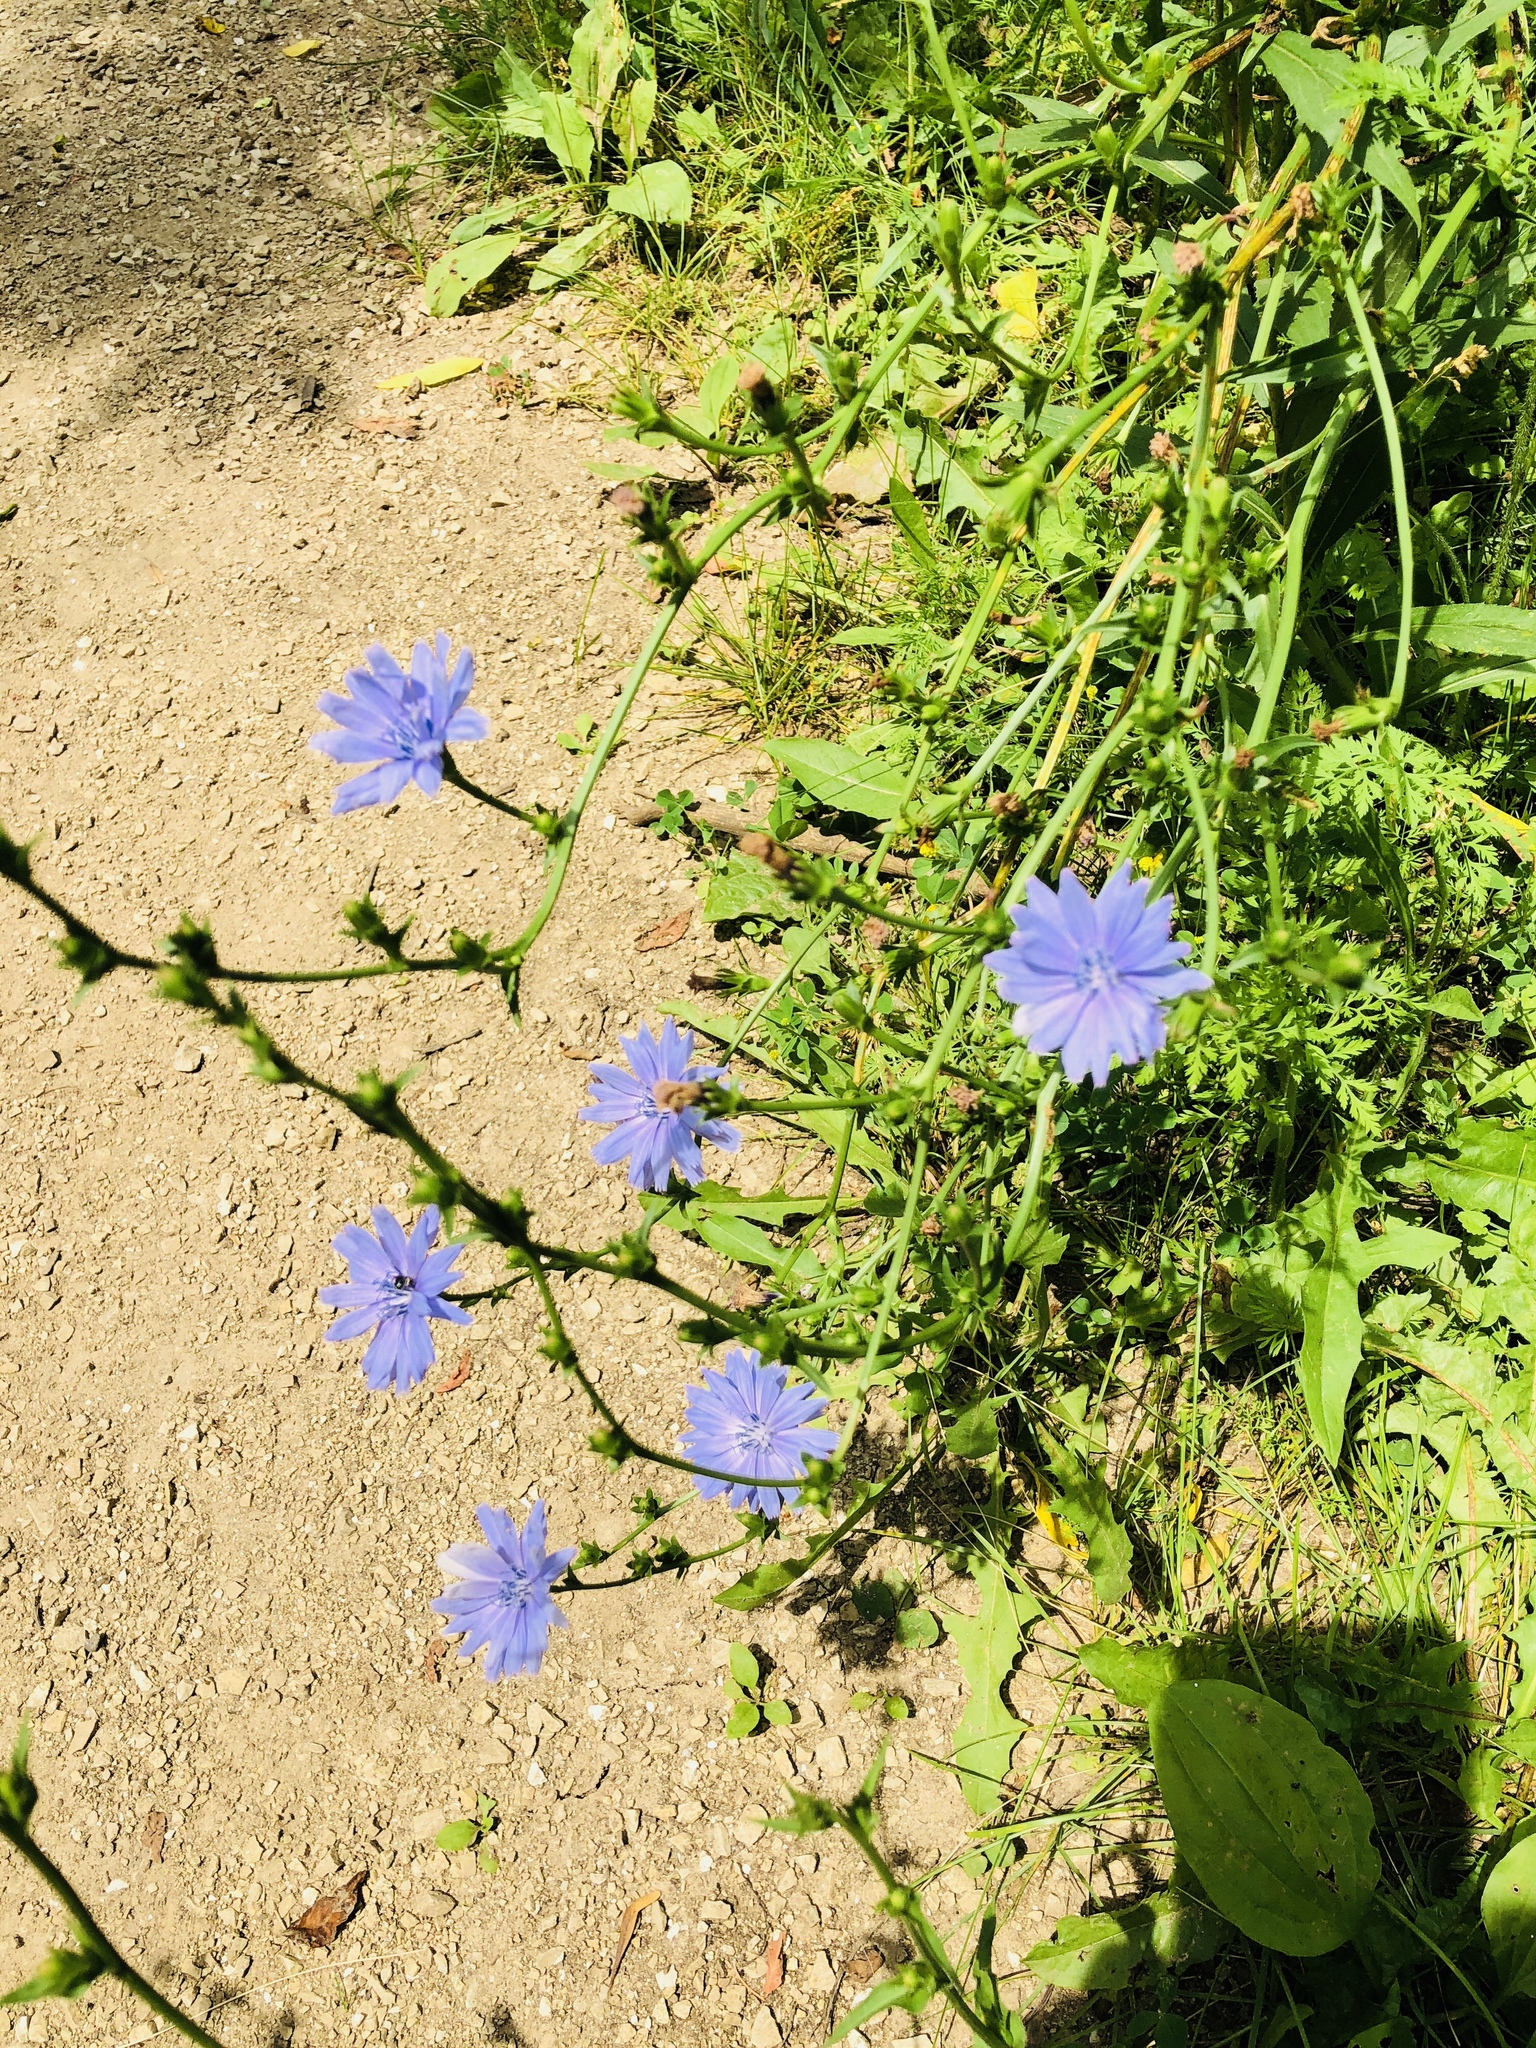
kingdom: Plantae
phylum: Tracheophyta
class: Magnoliopsida
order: Asterales
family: Asteraceae
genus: Cichorium
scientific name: Cichorium intybus
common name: Chicory
